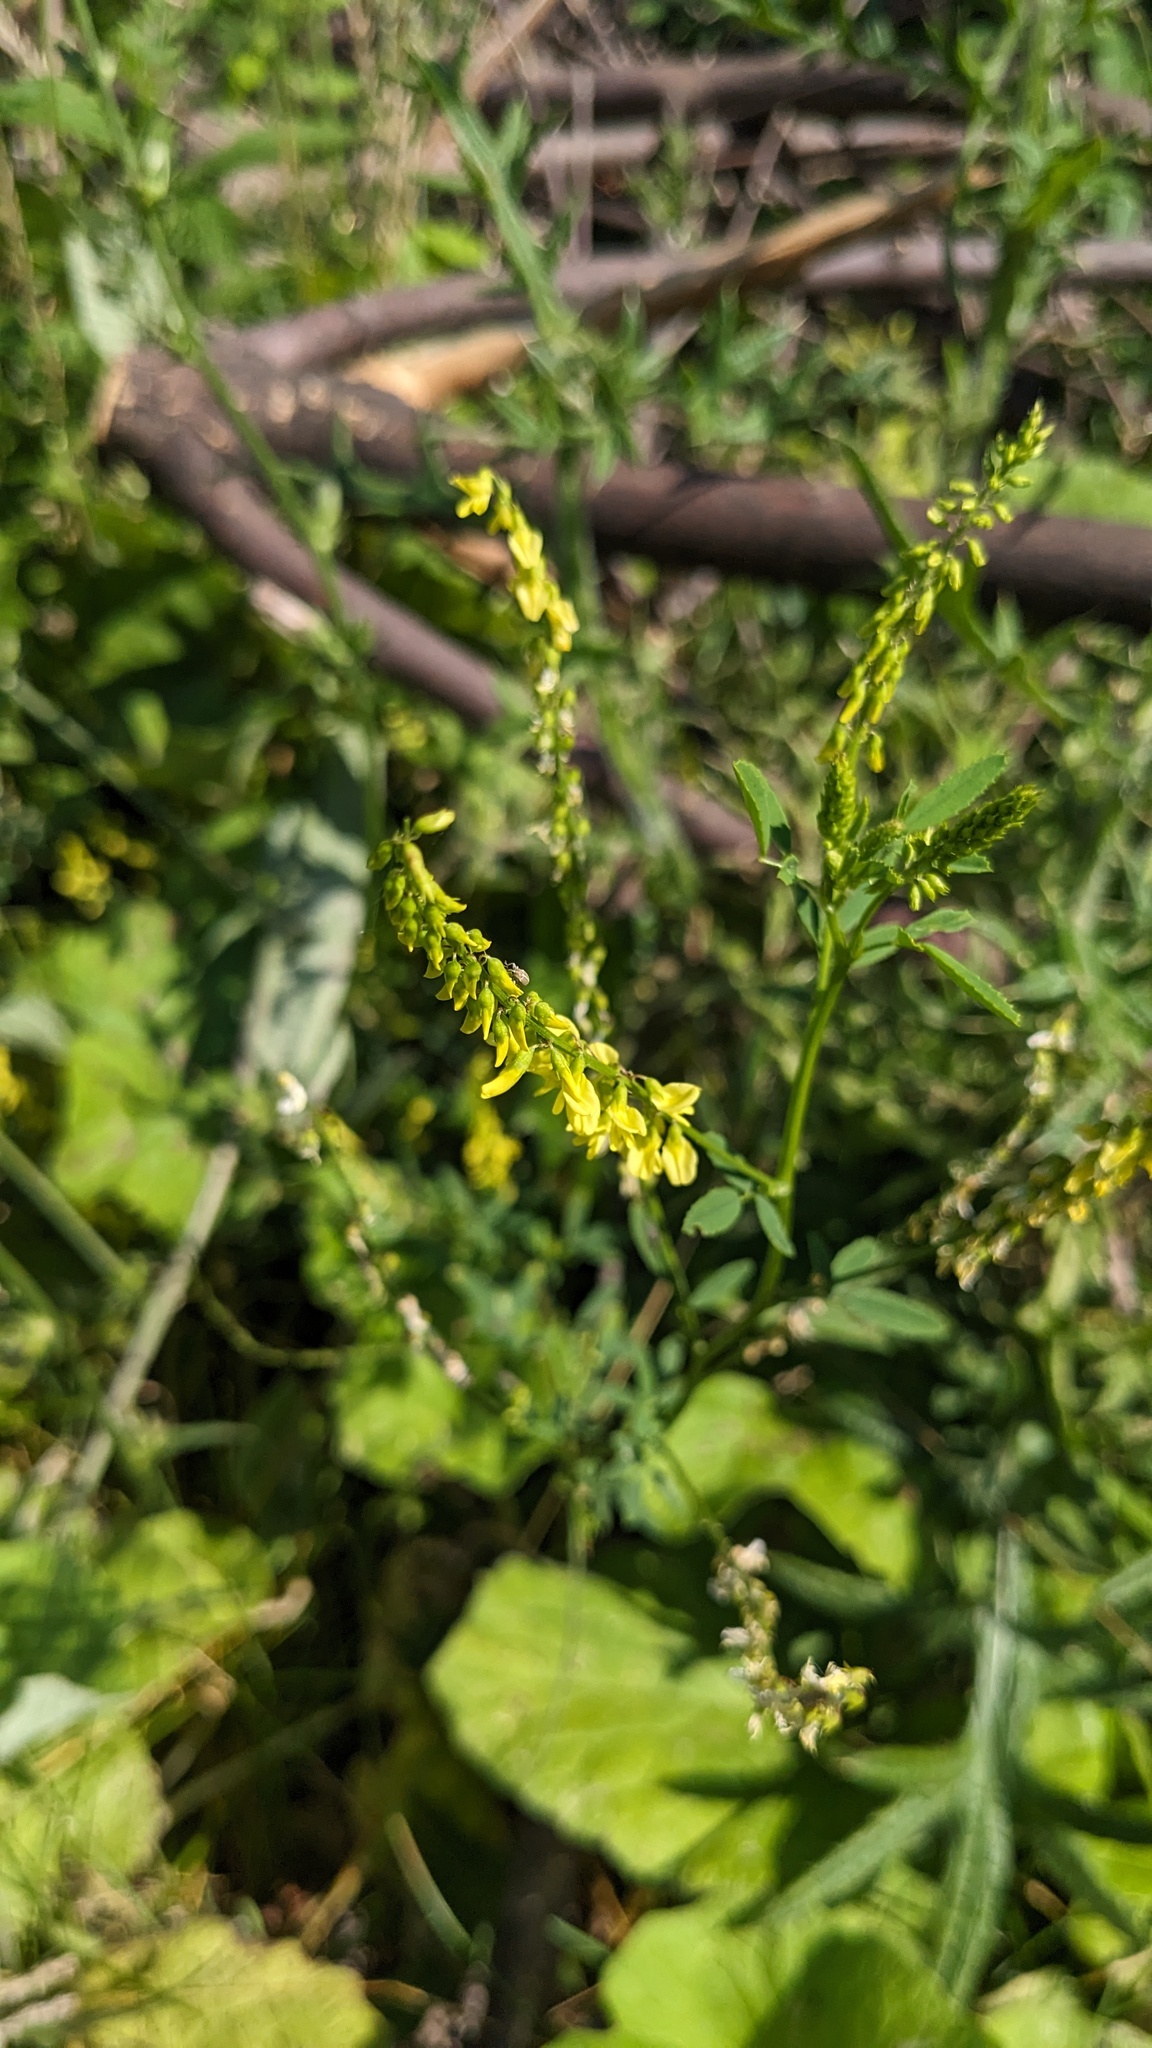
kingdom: Plantae
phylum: Tracheophyta
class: Magnoliopsida
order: Fabales
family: Fabaceae
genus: Melilotus
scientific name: Melilotus officinalis
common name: Sweetclover
